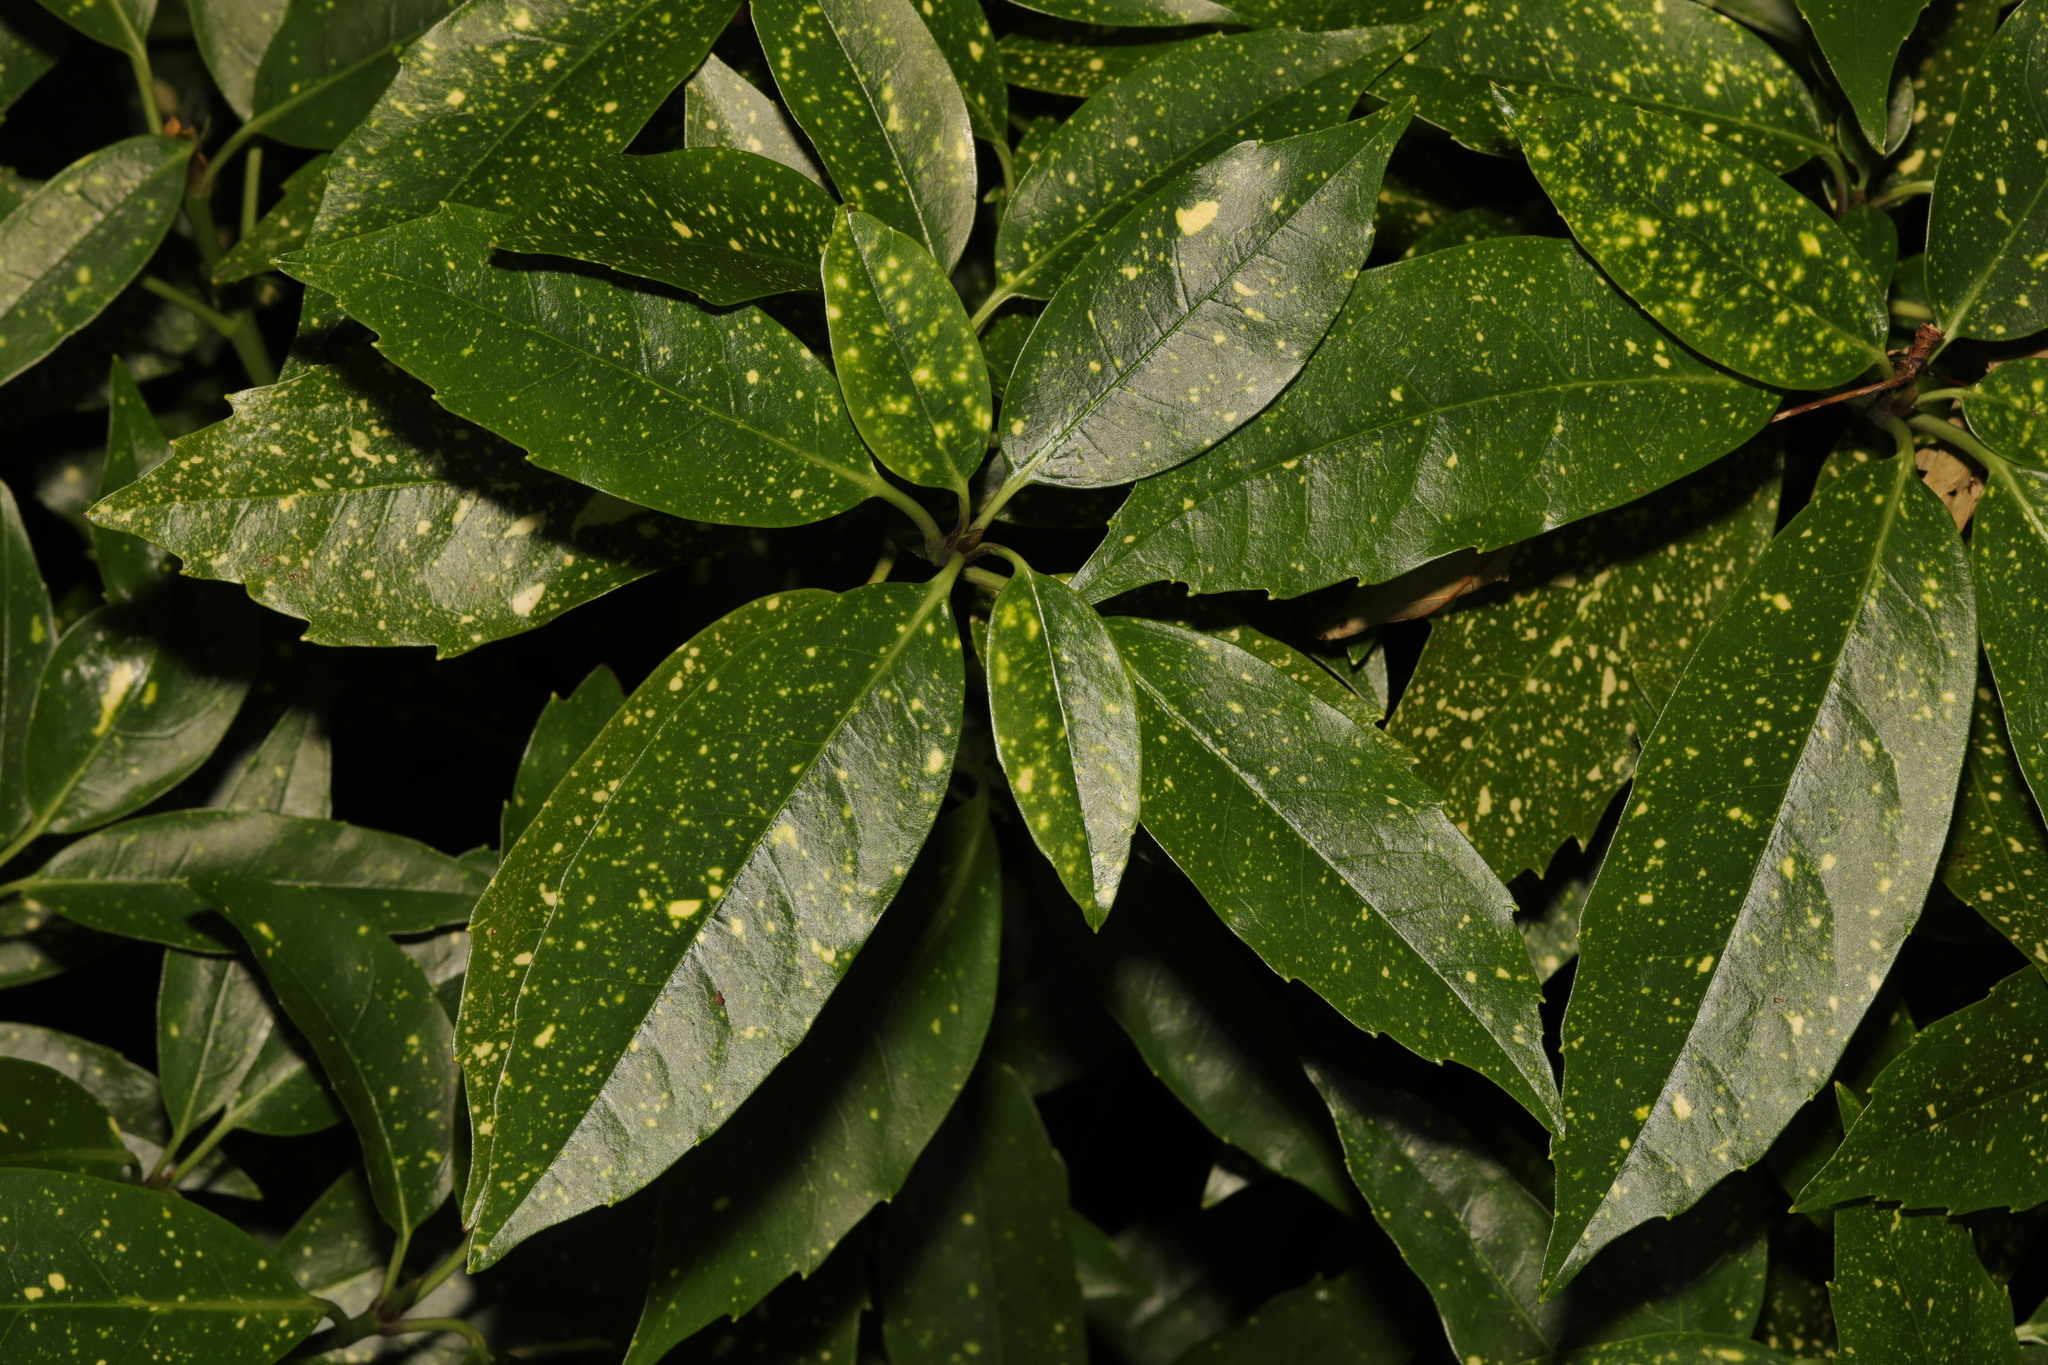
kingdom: Plantae
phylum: Tracheophyta
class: Magnoliopsida
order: Garryales
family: Garryaceae
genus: Aucuba
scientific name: Aucuba japonica
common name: Spotted-laurel
